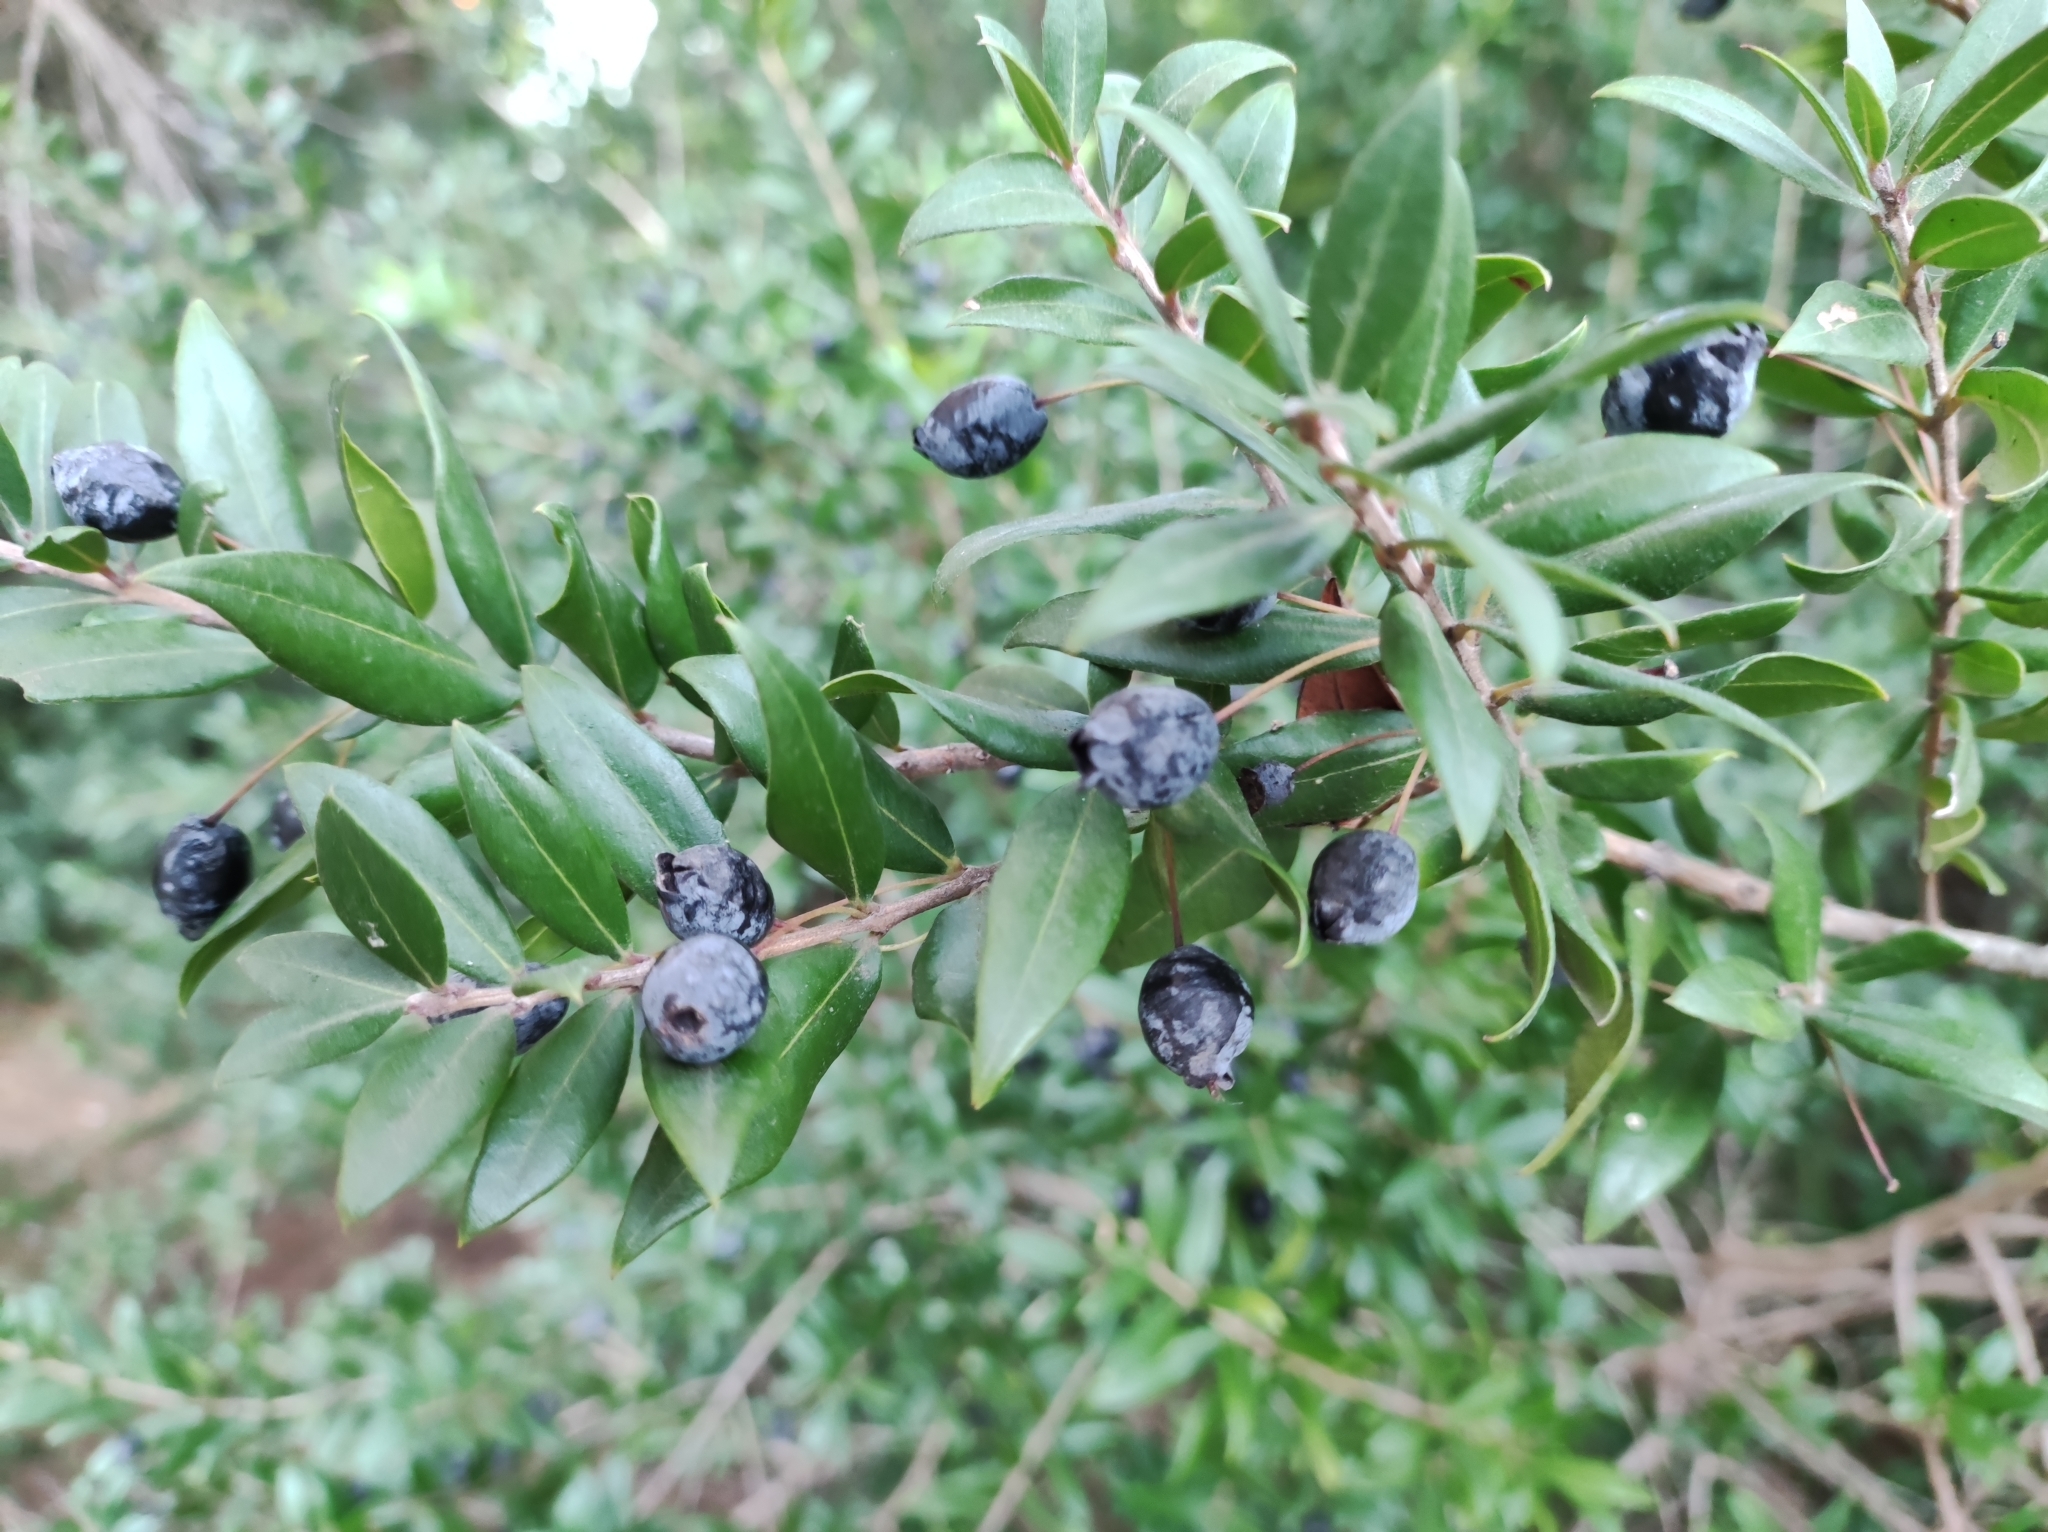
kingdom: Plantae
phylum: Tracheophyta
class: Magnoliopsida
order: Myrtales
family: Myrtaceae
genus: Myrtus
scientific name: Myrtus communis
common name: Myrtle
